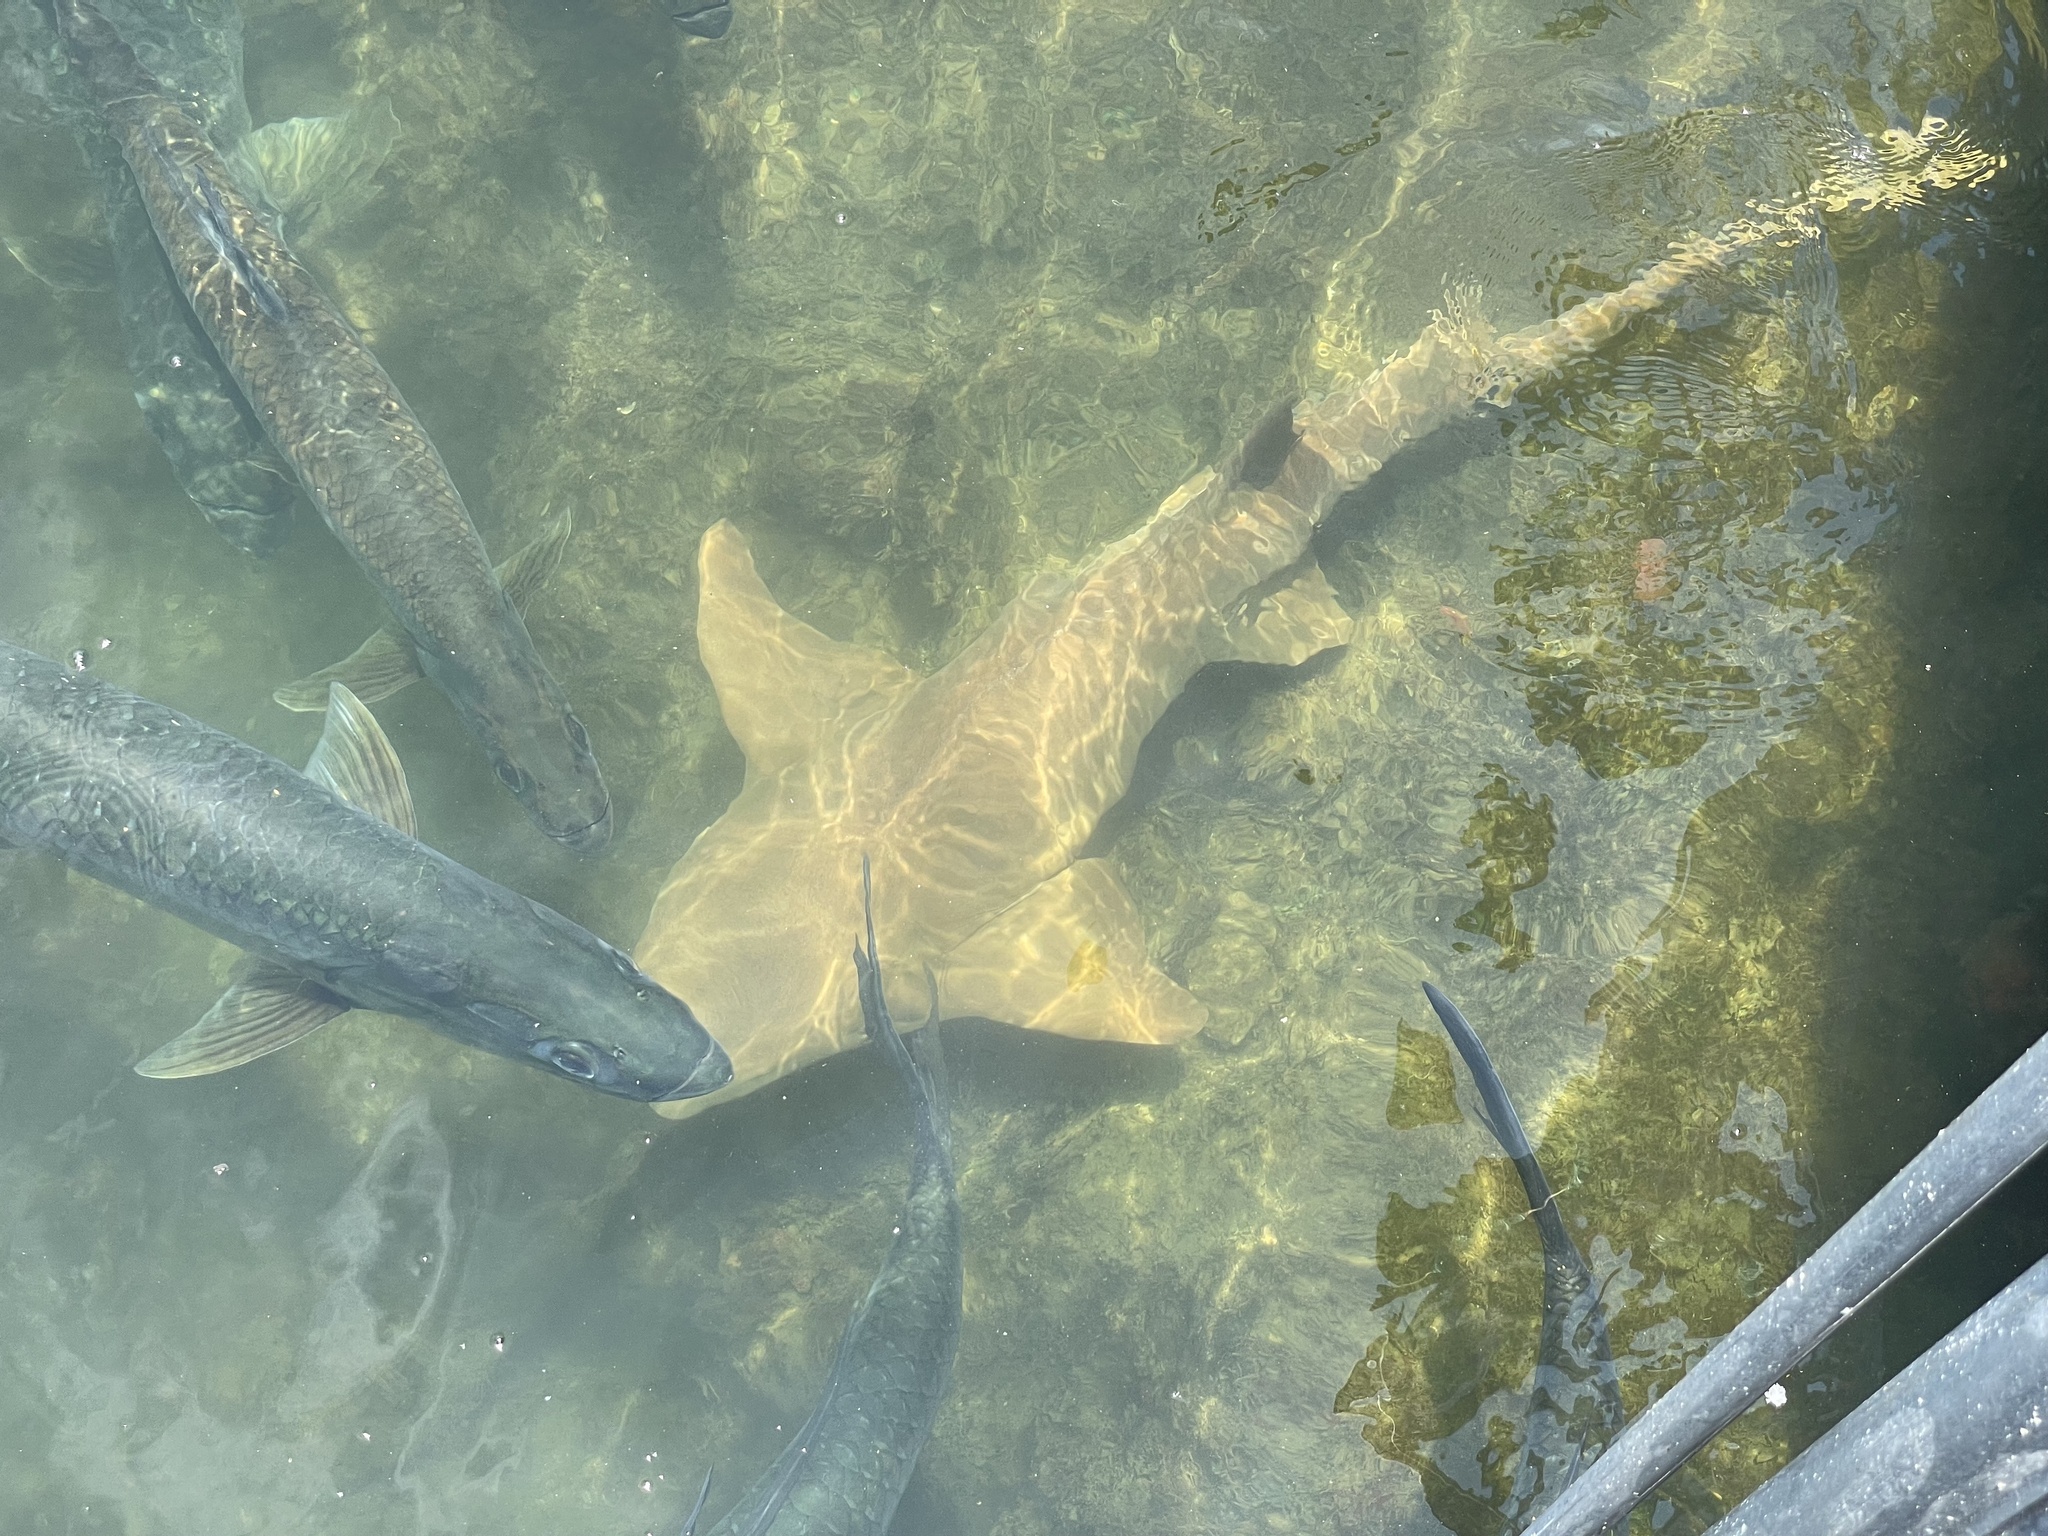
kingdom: Animalia
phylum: Chordata
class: Elasmobranchii
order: Orectolobiformes
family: Ginglymostomatidae
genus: Ginglymostoma
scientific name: Ginglymostoma cirratum
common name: Nurse shark
